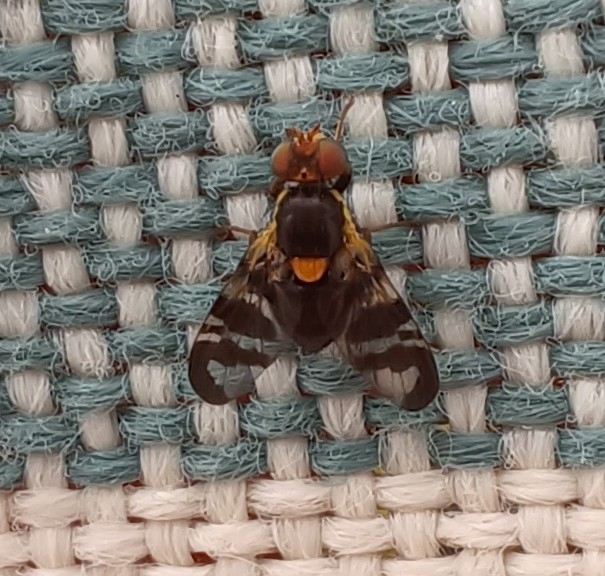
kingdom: Animalia
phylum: Arthropoda
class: Insecta
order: Diptera
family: Tephritidae
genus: Rhagoletis
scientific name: Rhagoletis cerasi
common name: European cherry fruit fly
